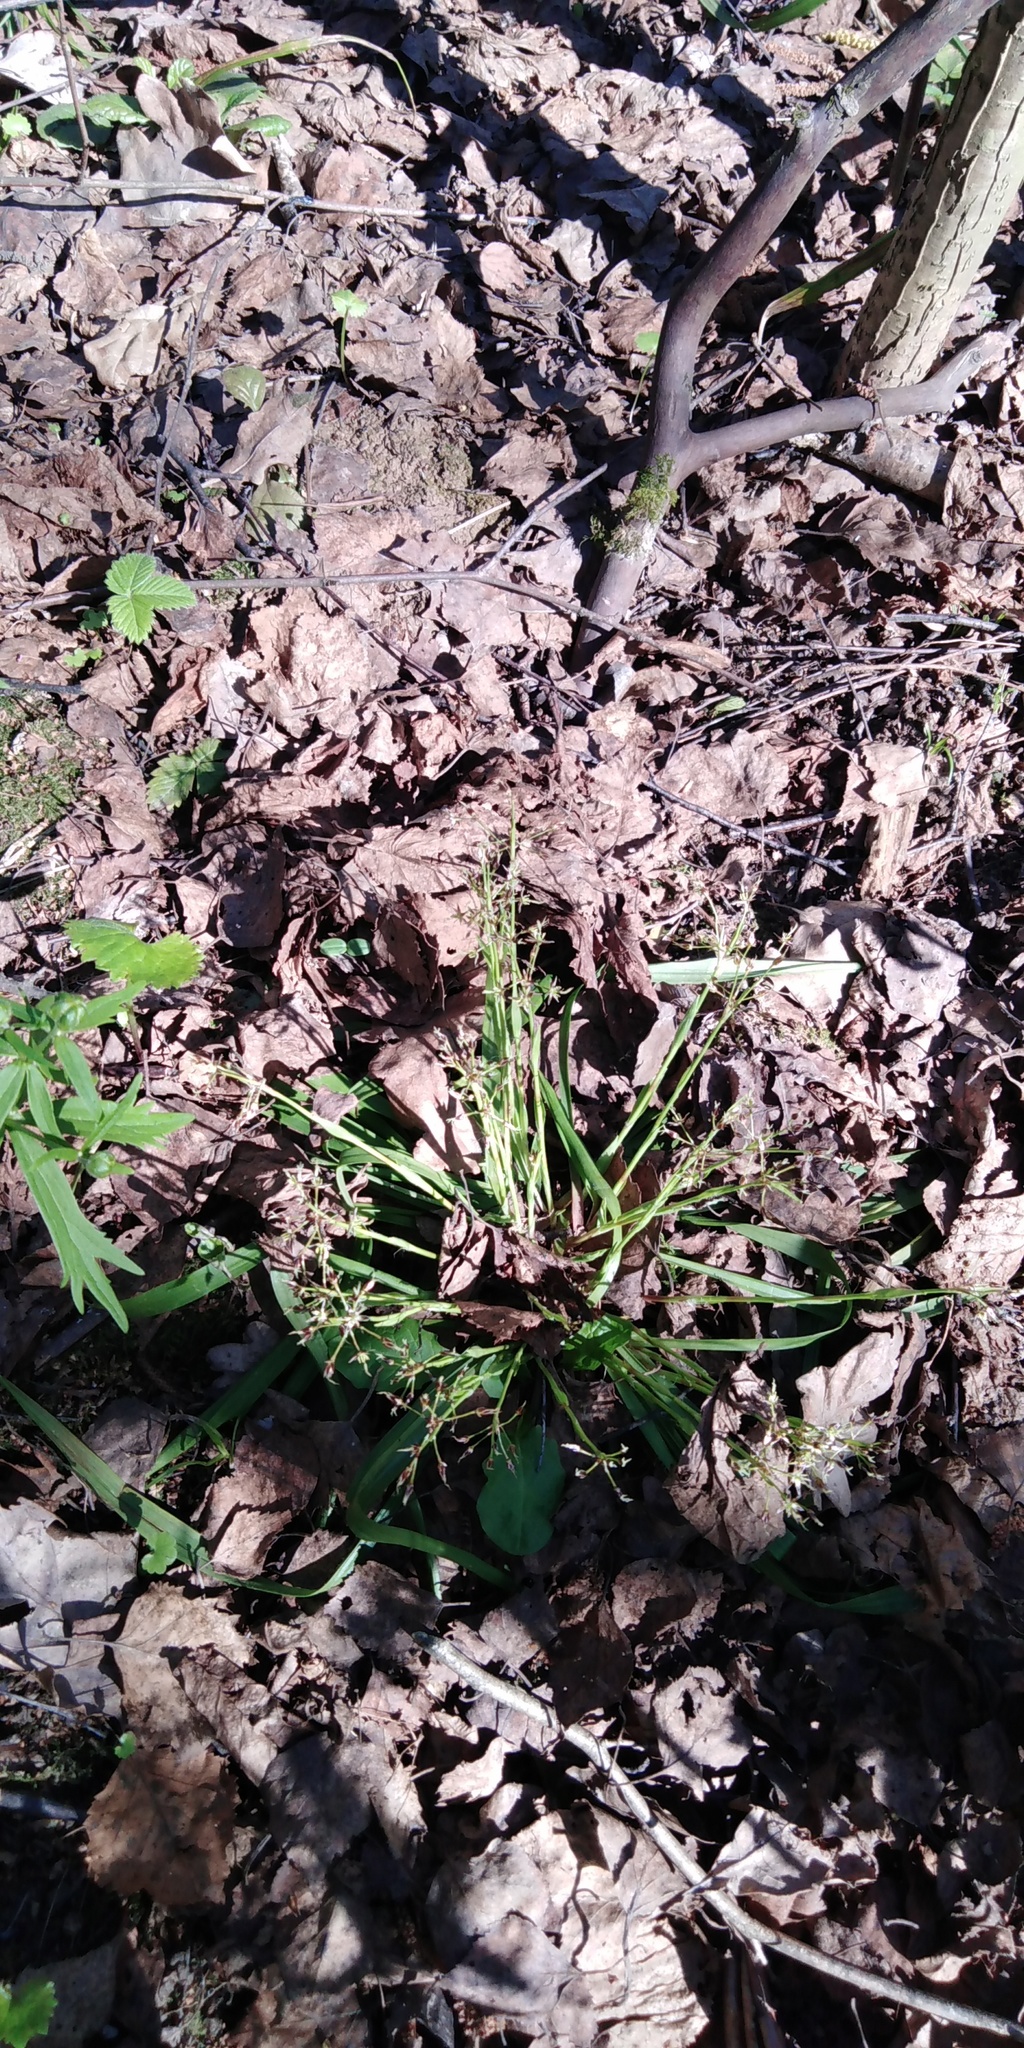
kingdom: Plantae
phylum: Tracheophyta
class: Liliopsida
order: Poales
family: Juncaceae
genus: Luzula
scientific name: Luzula pilosa
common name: Hairy wood-rush
